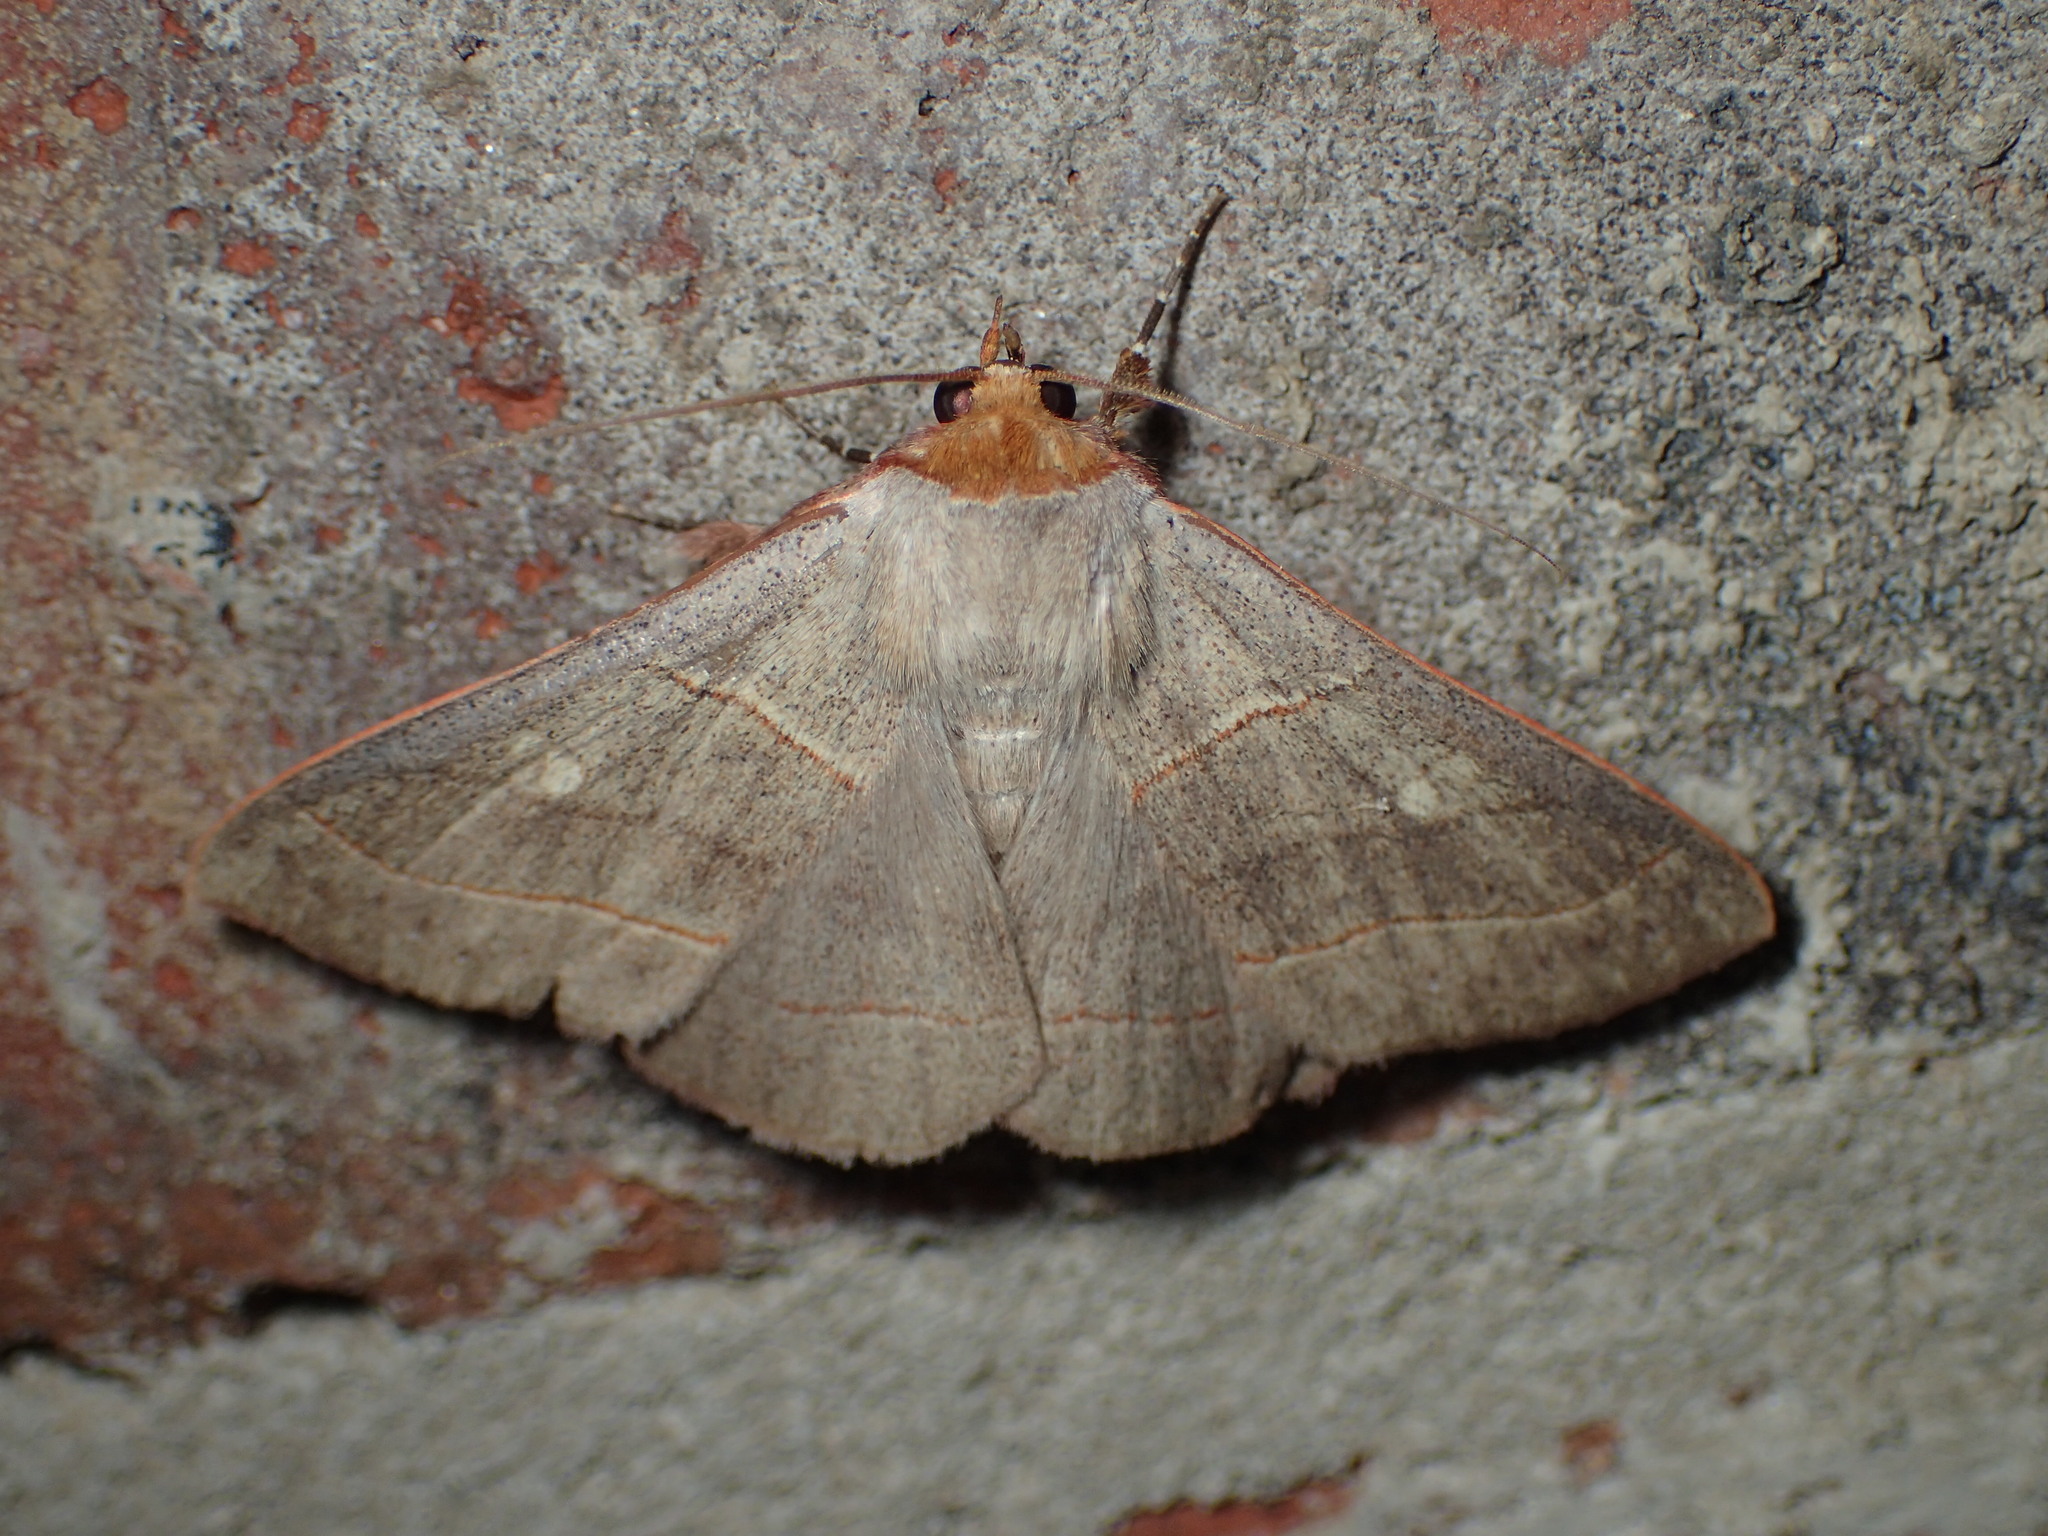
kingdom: Animalia
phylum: Arthropoda
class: Insecta
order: Lepidoptera
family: Erebidae
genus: Panopoda
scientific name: Panopoda rufimargo
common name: Red-lined panopoda moth
